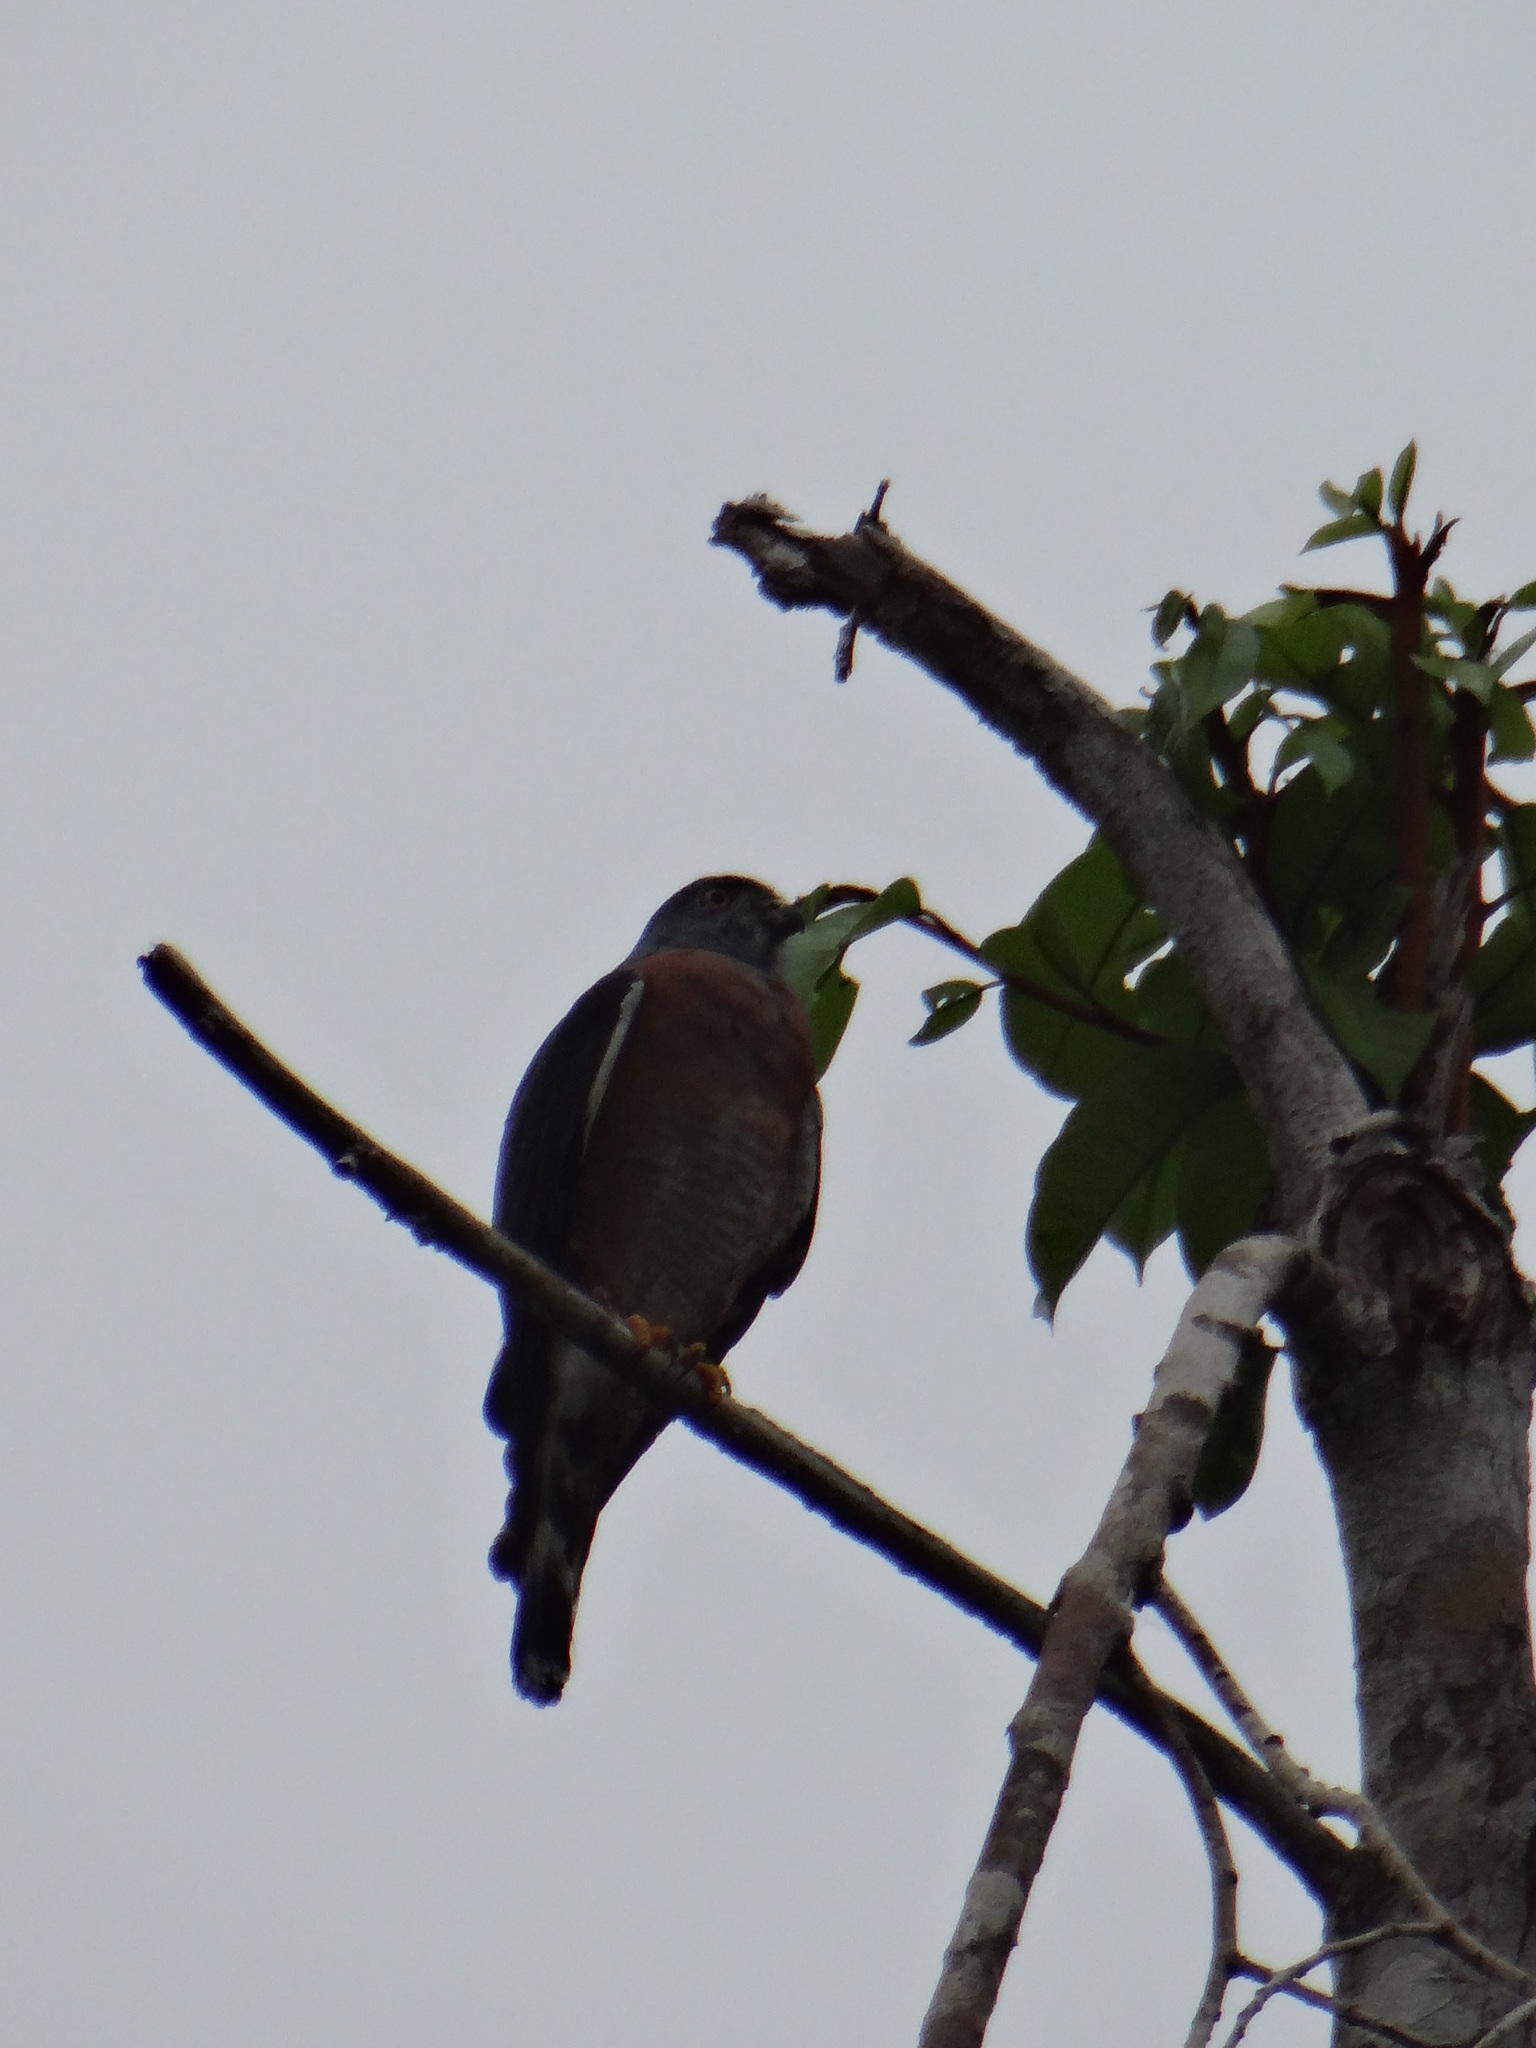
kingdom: Animalia
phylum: Chordata
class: Aves
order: Accipitriformes
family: Accipitridae
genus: Harpagus
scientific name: Harpagus bidentatus
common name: Double-toothed kite
